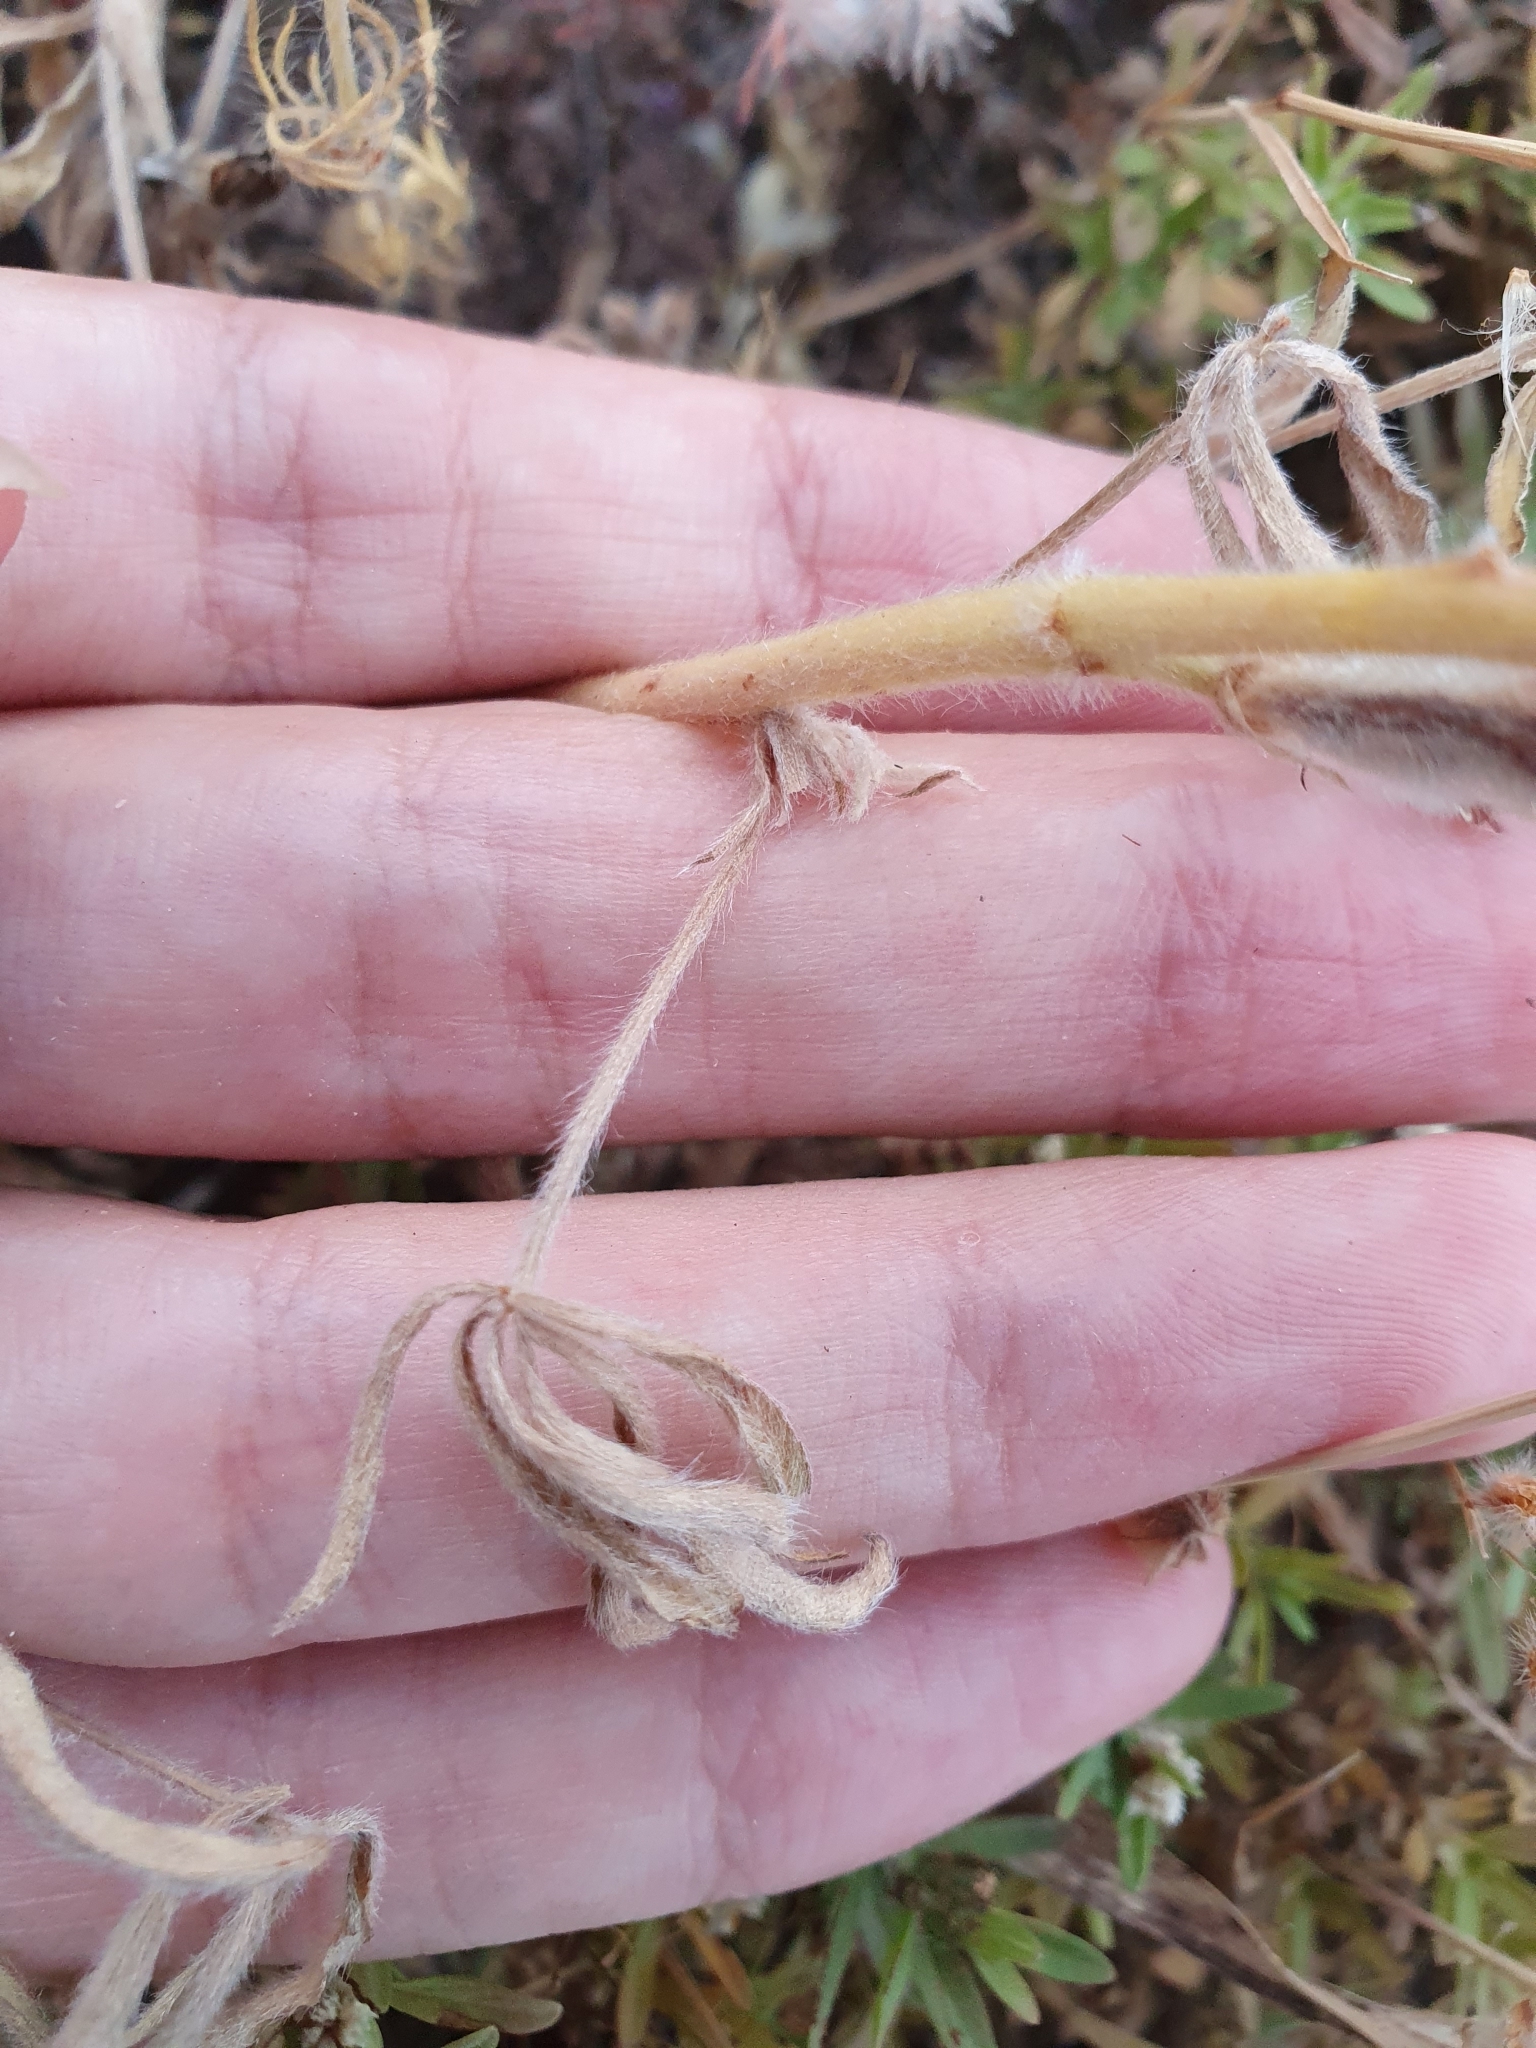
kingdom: Plantae
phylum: Tracheophyta
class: Magnoliopsida
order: Fabales
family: Fabaceae
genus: Lupinus
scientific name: Lupinus angustifolius
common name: Narrow-leaved lupin
